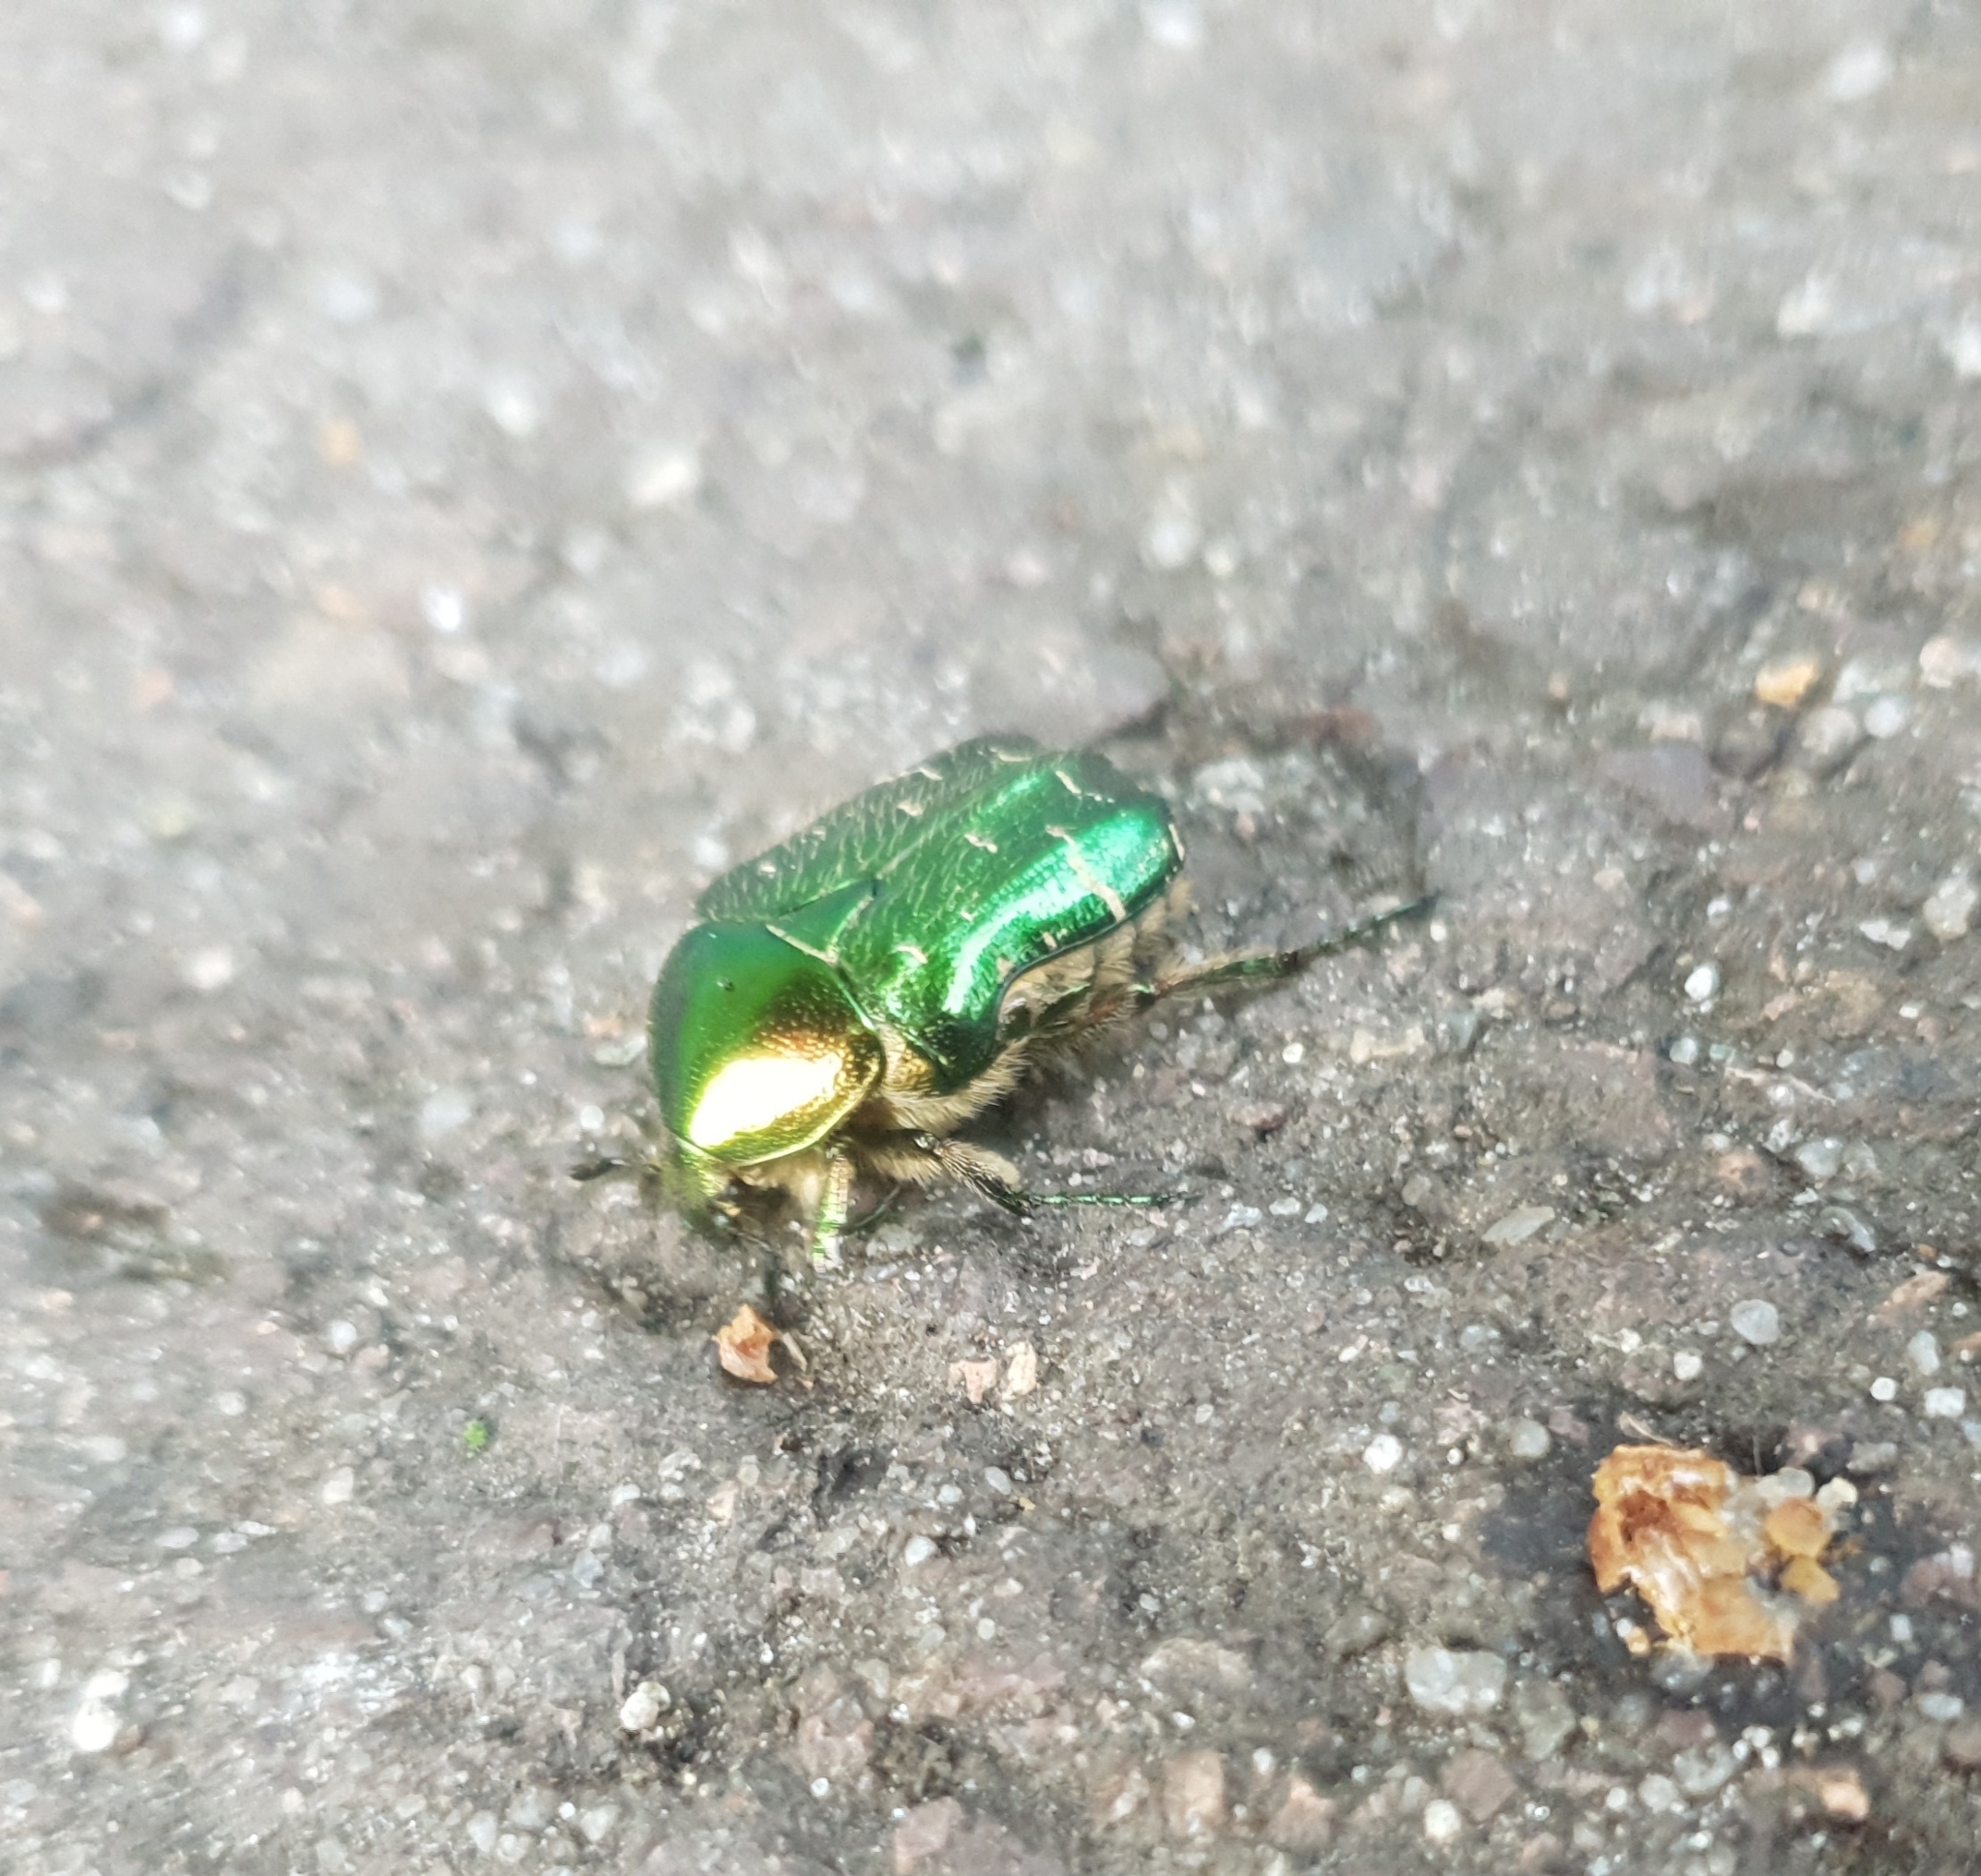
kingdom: Animalia
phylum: Arthropoda
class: Insecta
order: Coleoptera
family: Scarabaeidae
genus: Cetonia
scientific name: Cetonia aurata
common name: Rose chafer
